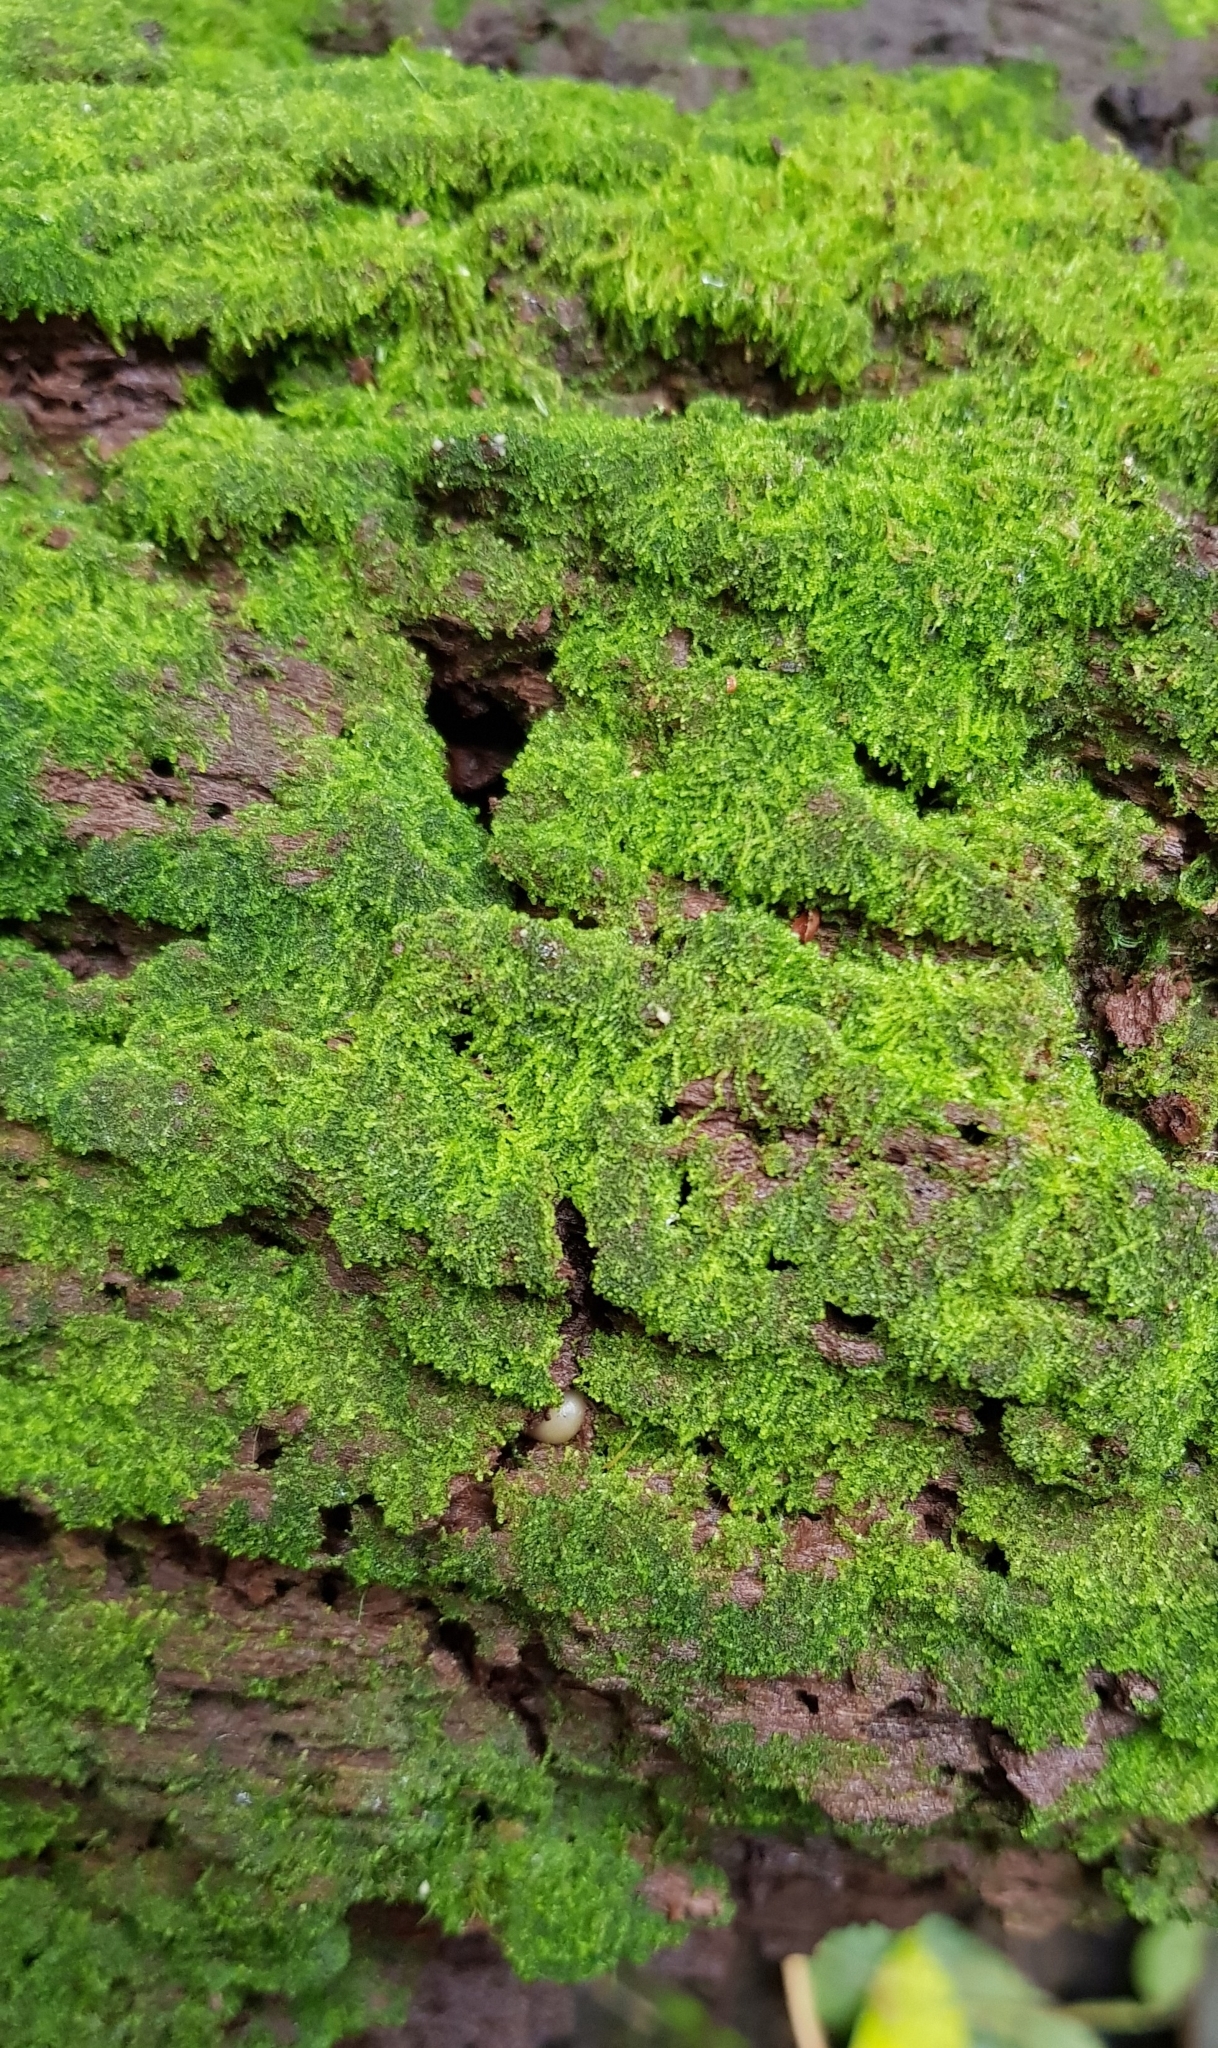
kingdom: Plantae
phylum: Marchantiophyta
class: Jungermanniopsida
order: Jungermanniales
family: Cephaloziaceae
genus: Nowellia
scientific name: Nowellia curvifolia
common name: Wood rustwort
